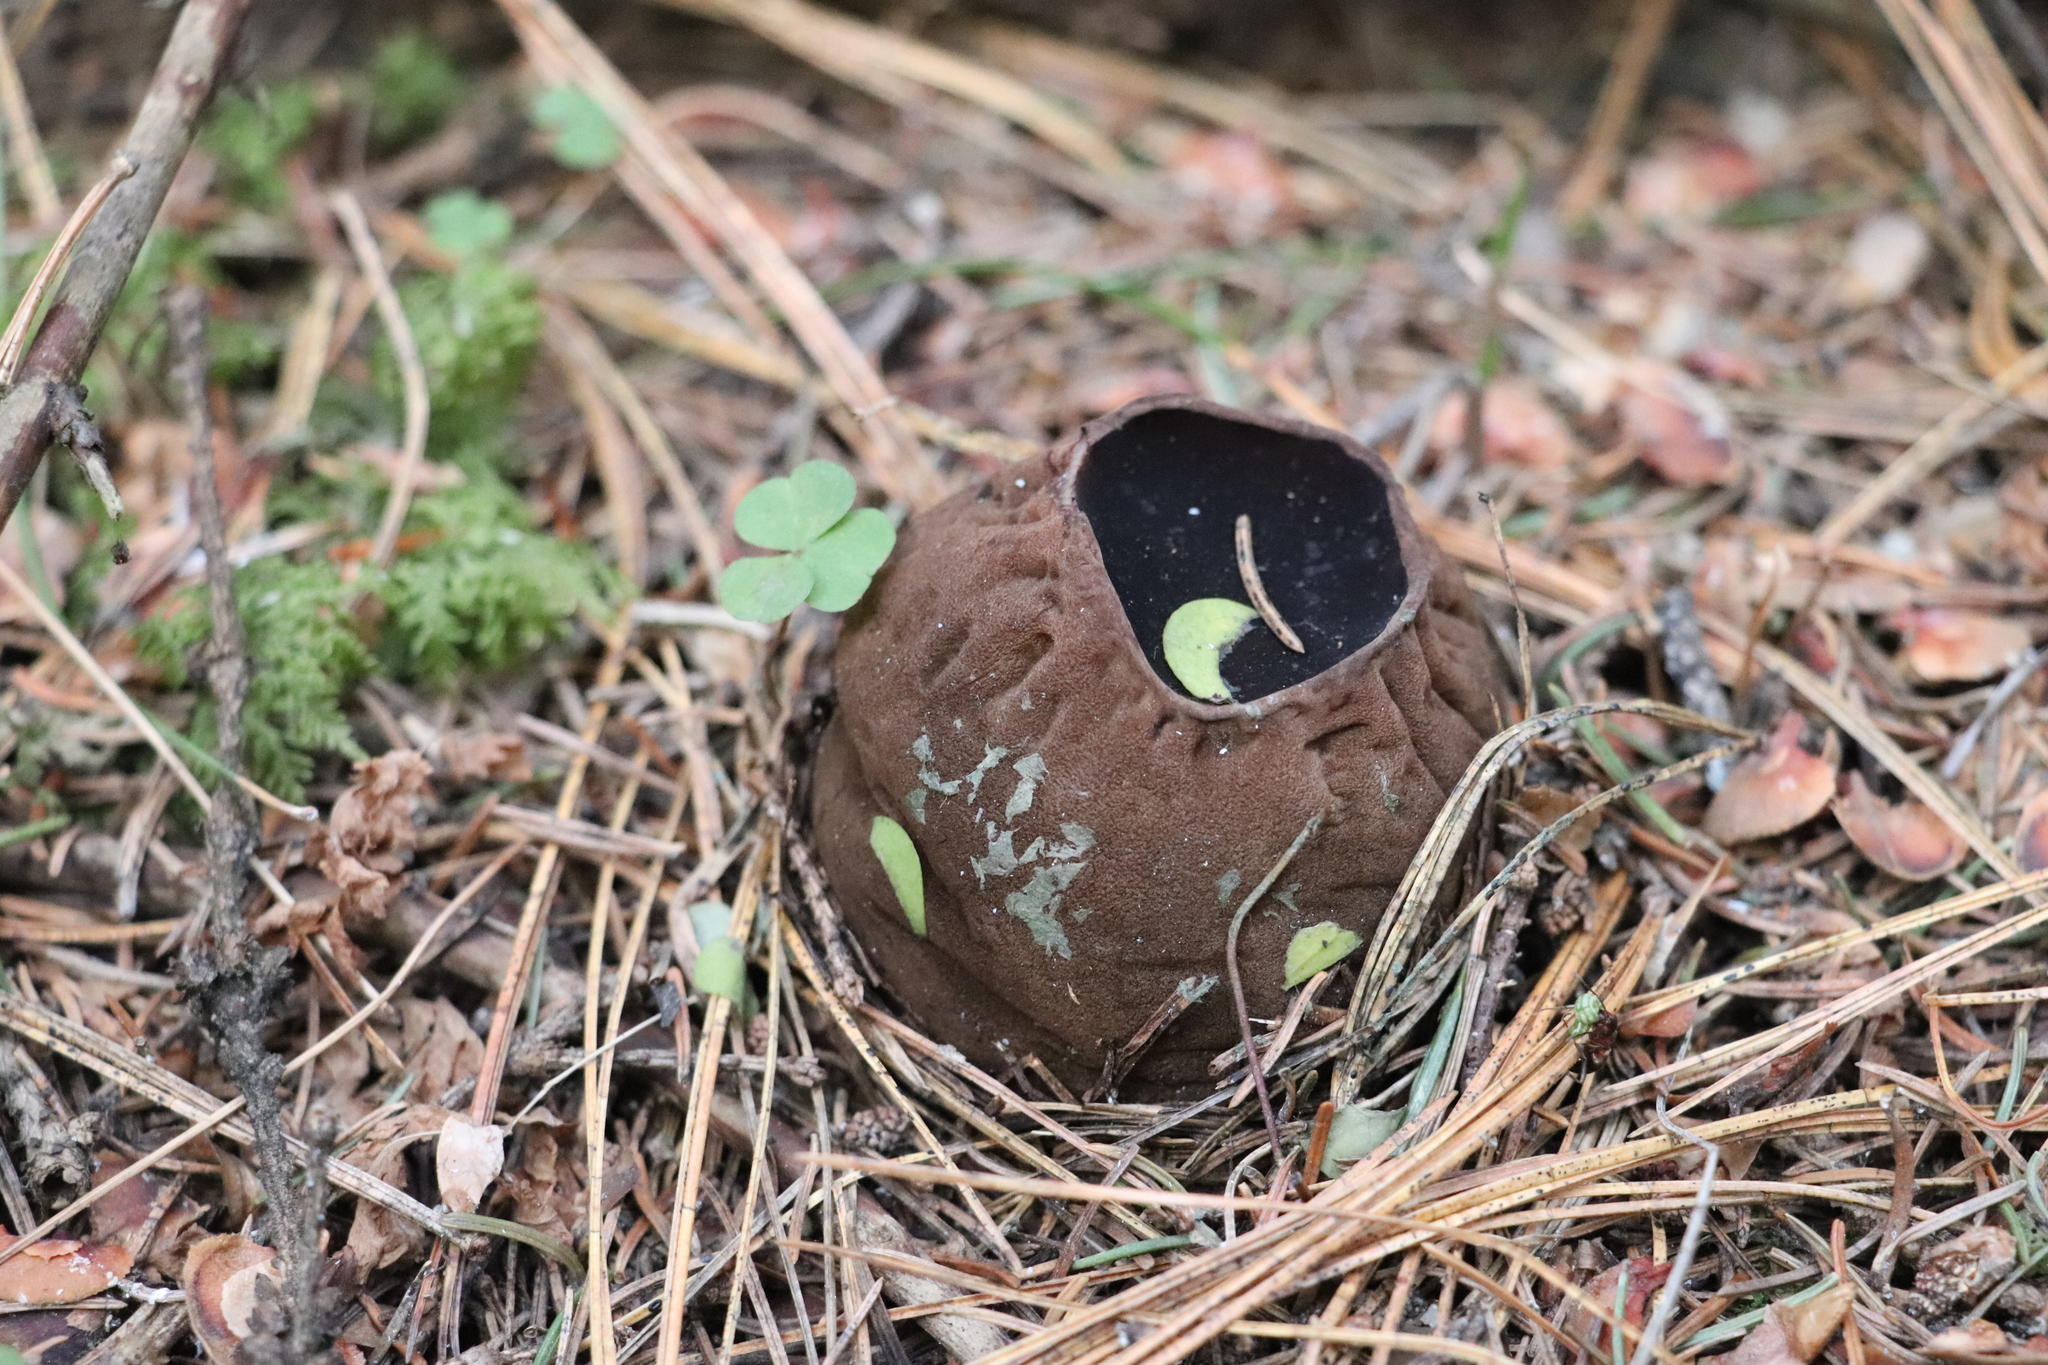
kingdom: Fungi
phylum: Ascomycota
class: Pezizomycetes
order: Pezizales
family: Sarcosomataceae
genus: Sarcosoma
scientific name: Sarcosoma globosum
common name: Charred-pancake cup
